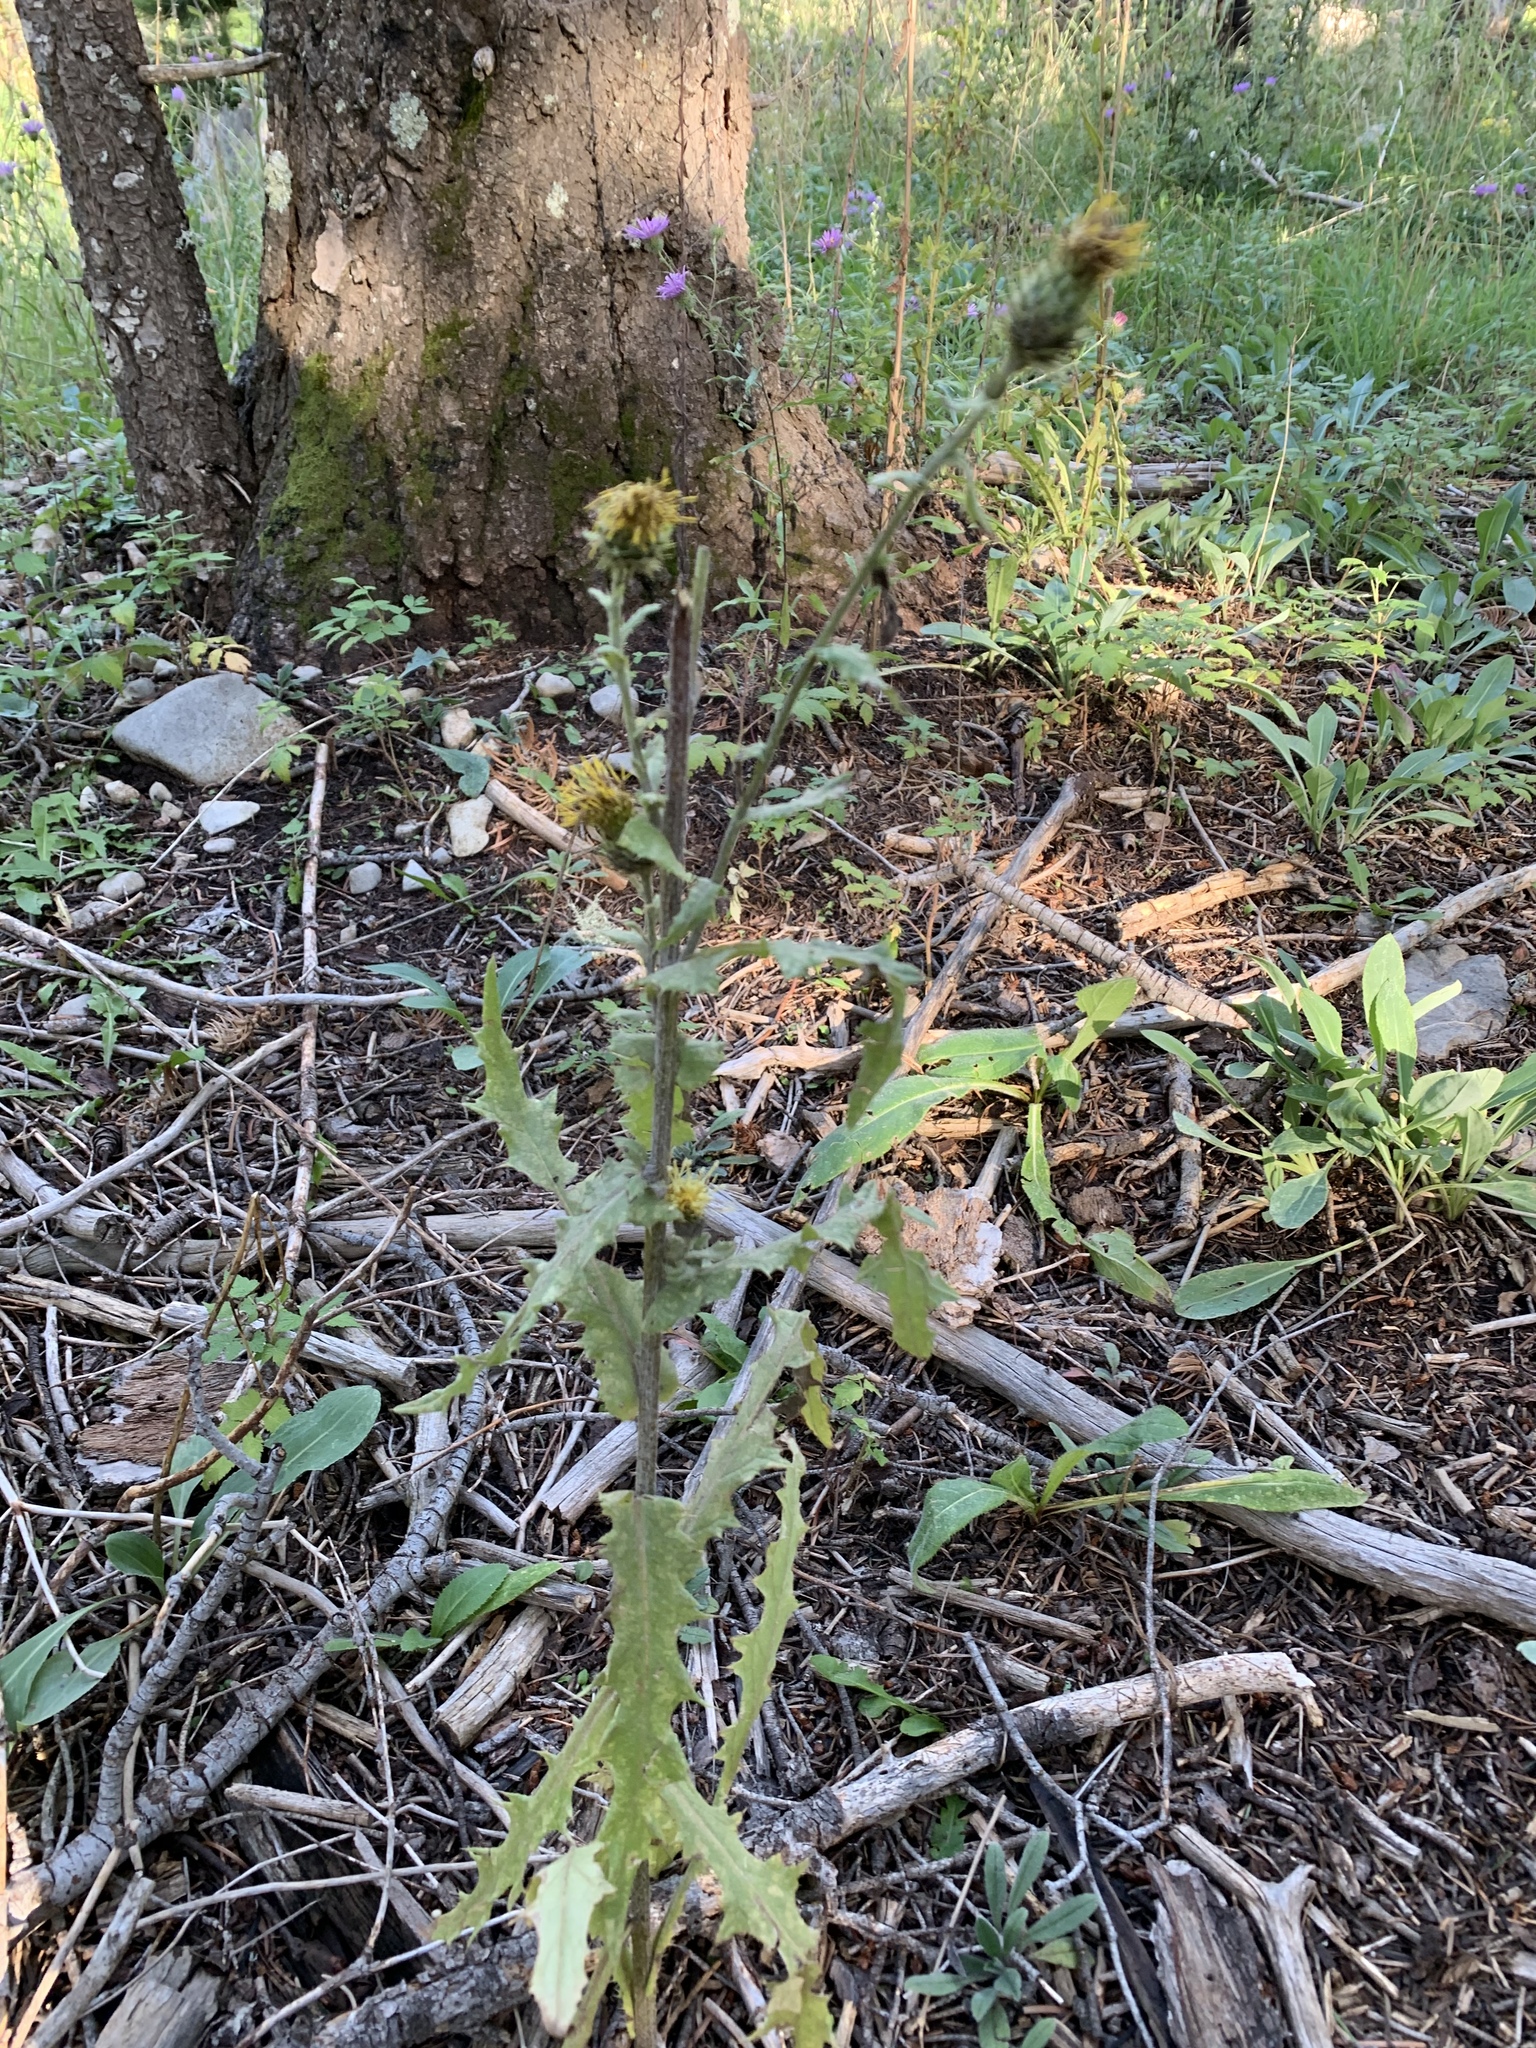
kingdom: Plantae
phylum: Tracheophyta
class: Magnoliopsida
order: Asterales
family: Asteraceae
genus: Cirsium
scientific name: Cirsium parryi
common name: Parry's thistle
